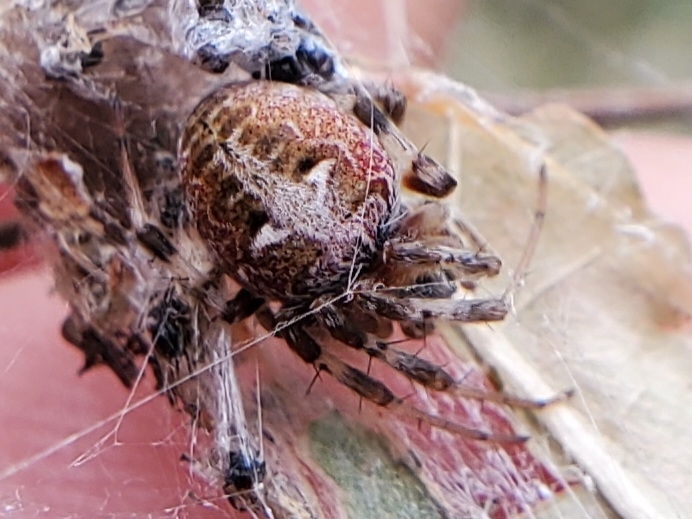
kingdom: Animalia
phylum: Arthropoda
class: Arachnida
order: Araneae
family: Araneidae
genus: Metepeira
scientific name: Metepeira labyrinthea
